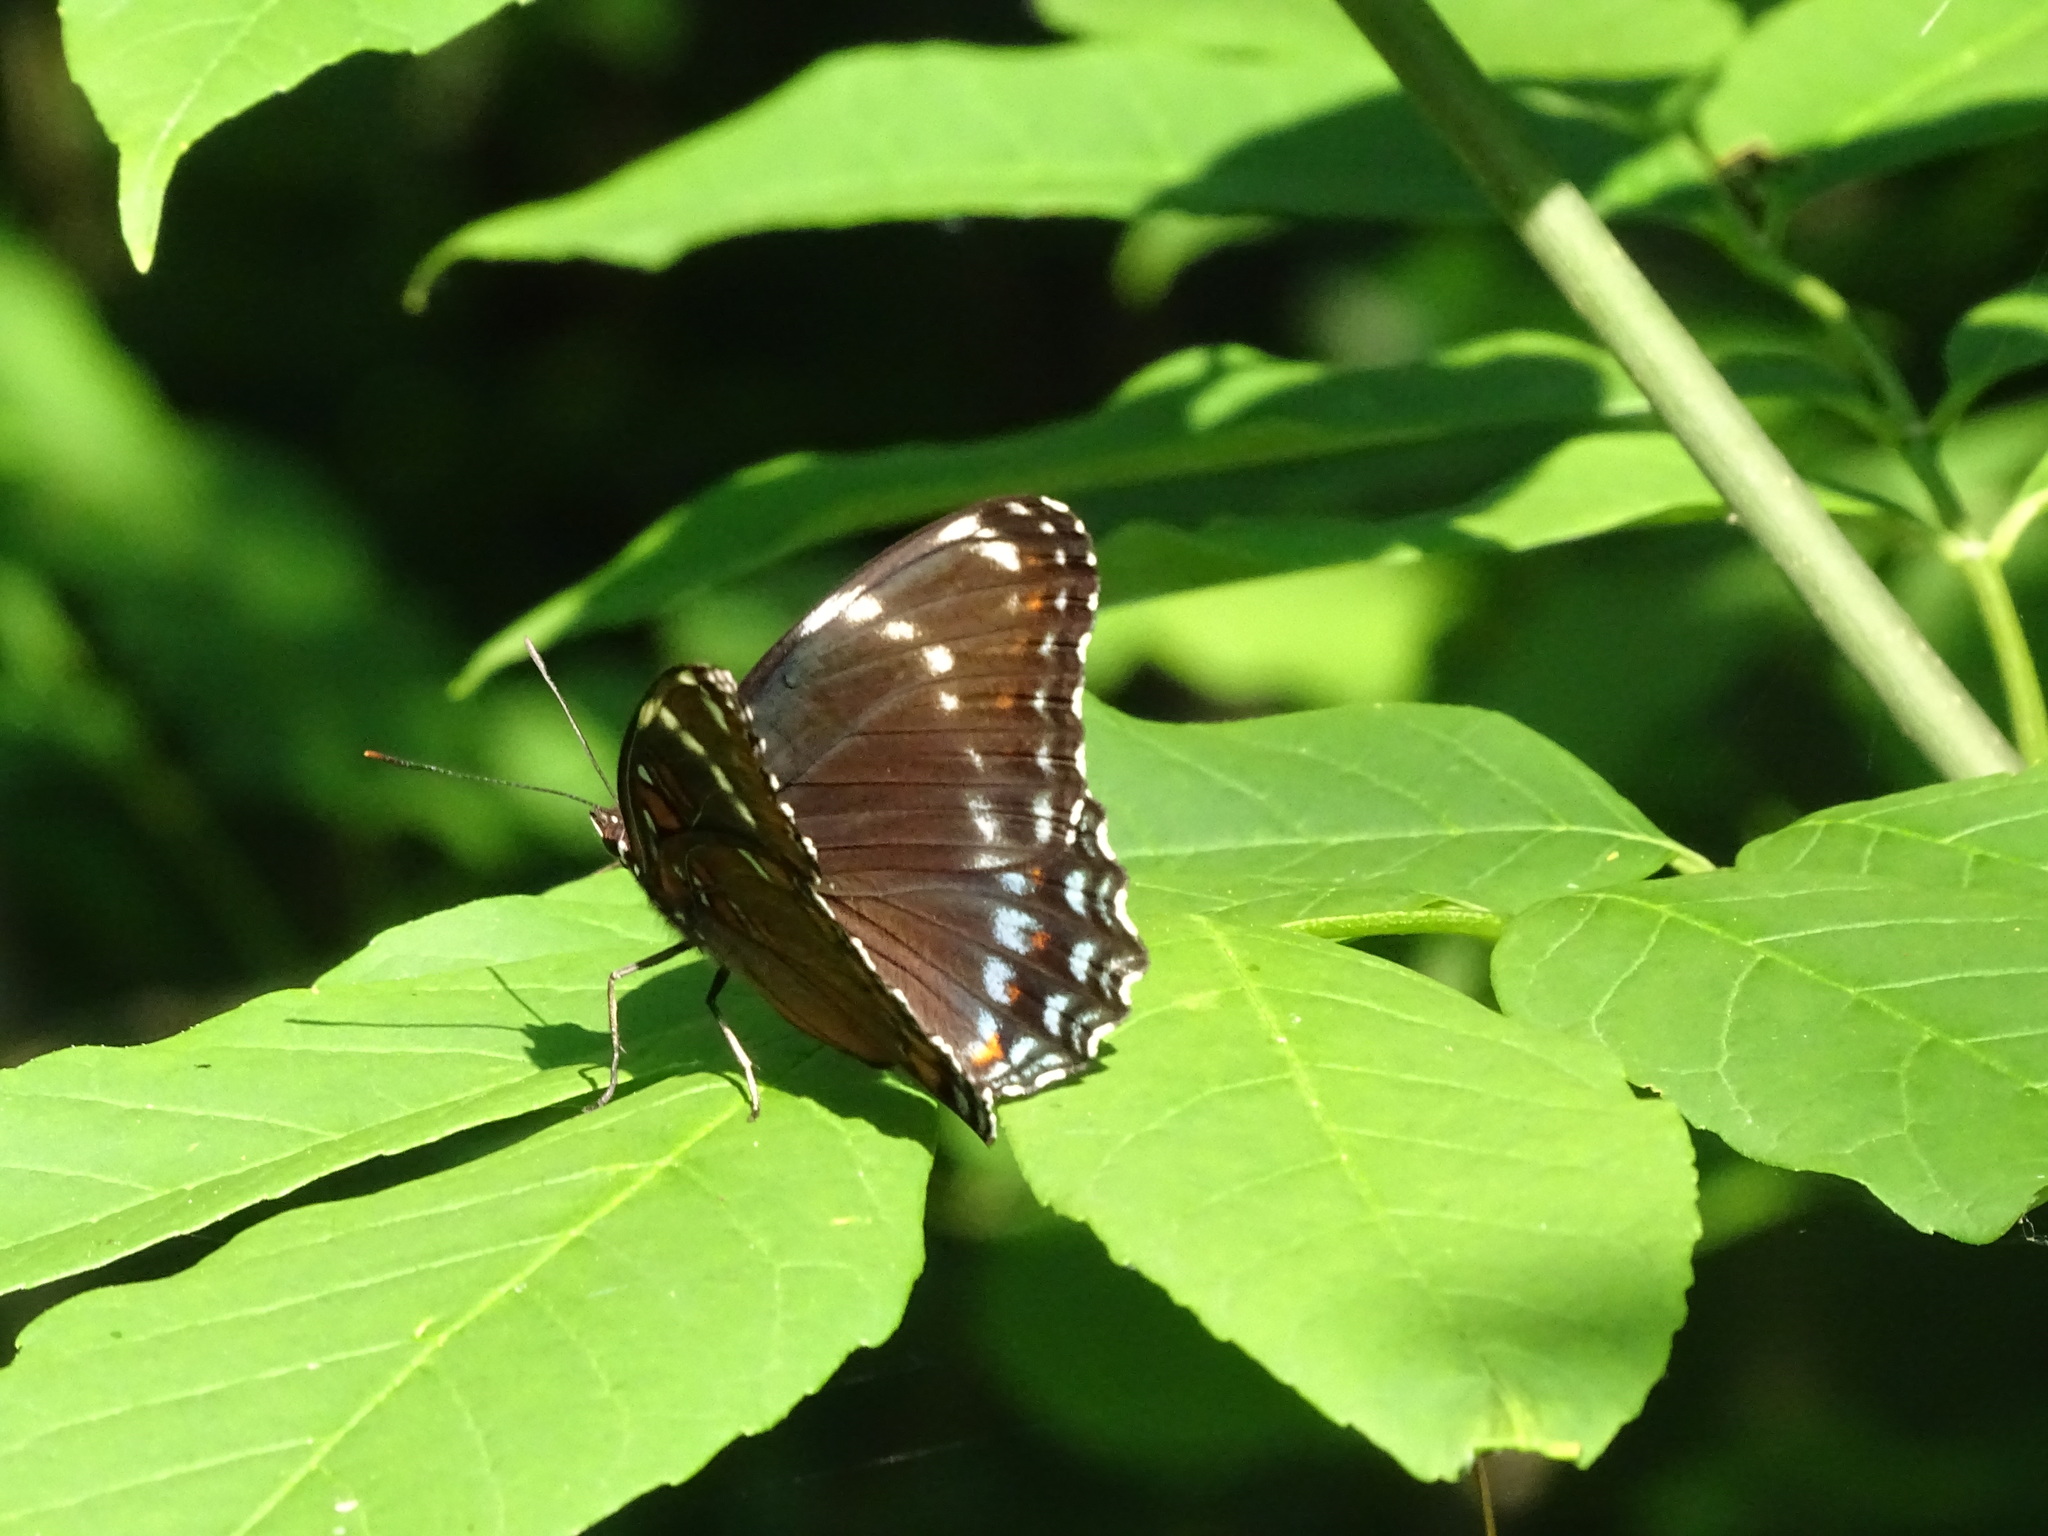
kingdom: Animalia
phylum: Arthropoda
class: Insecta
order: Lepidoptera
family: Nymphalidae
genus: Limenitis
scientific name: Limenitis
